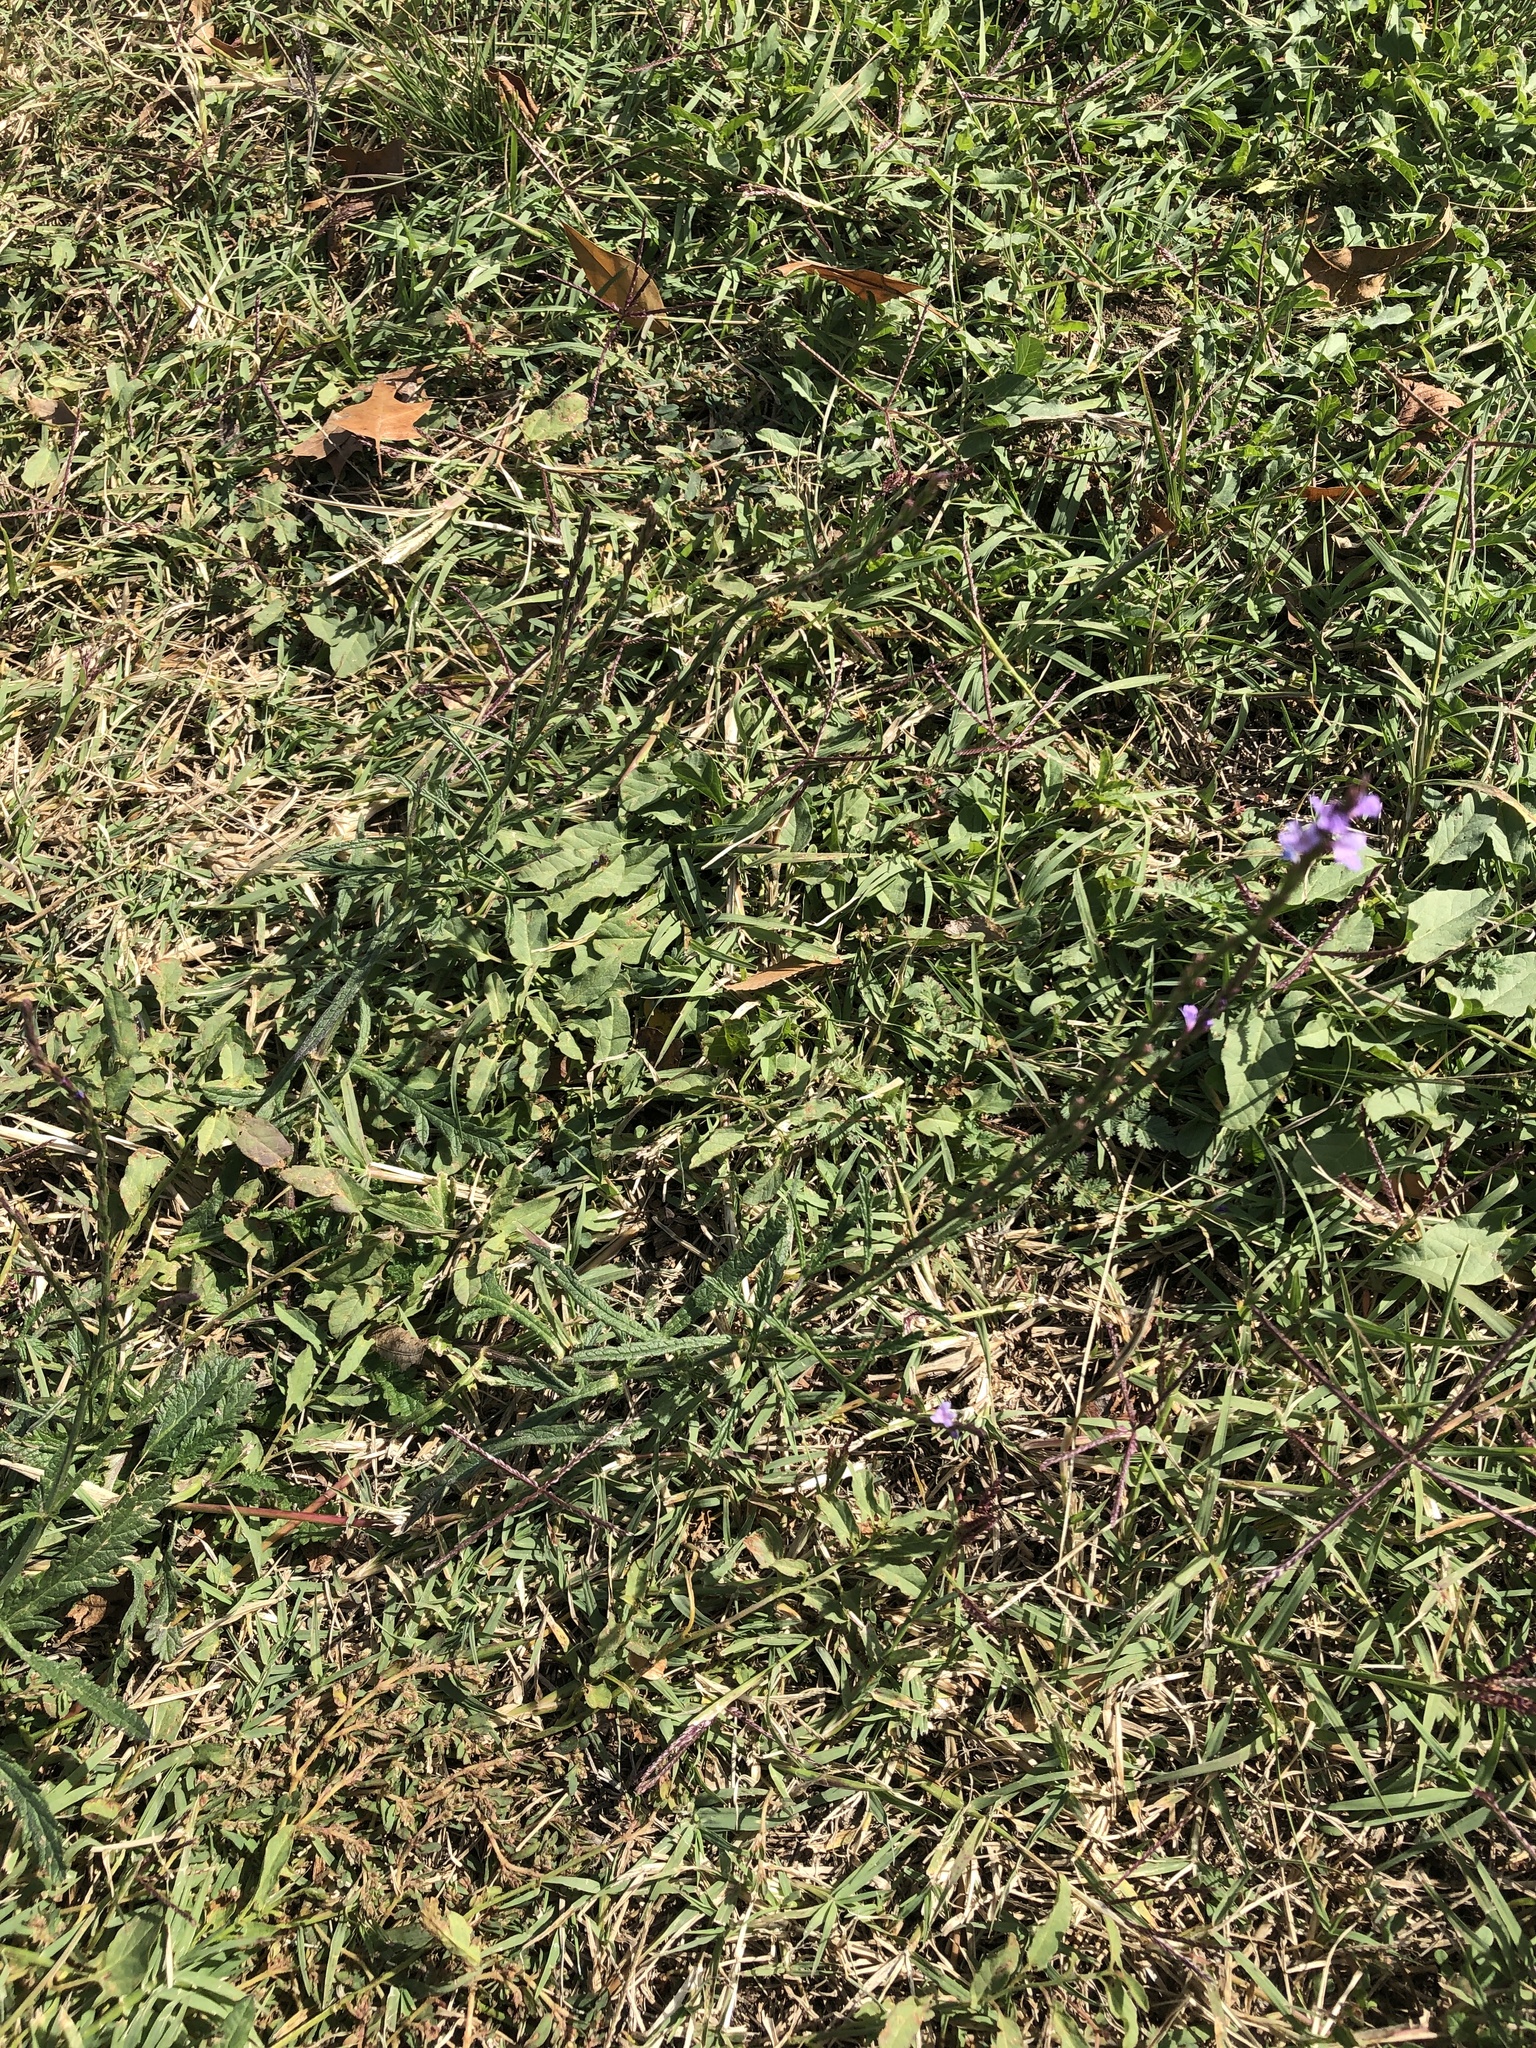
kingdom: Plantae
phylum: Tracheophyta
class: Magnoliopsida
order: Lamiales
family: Verbenaceae
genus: Verbena
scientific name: Verbena halei
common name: Texas vervain
